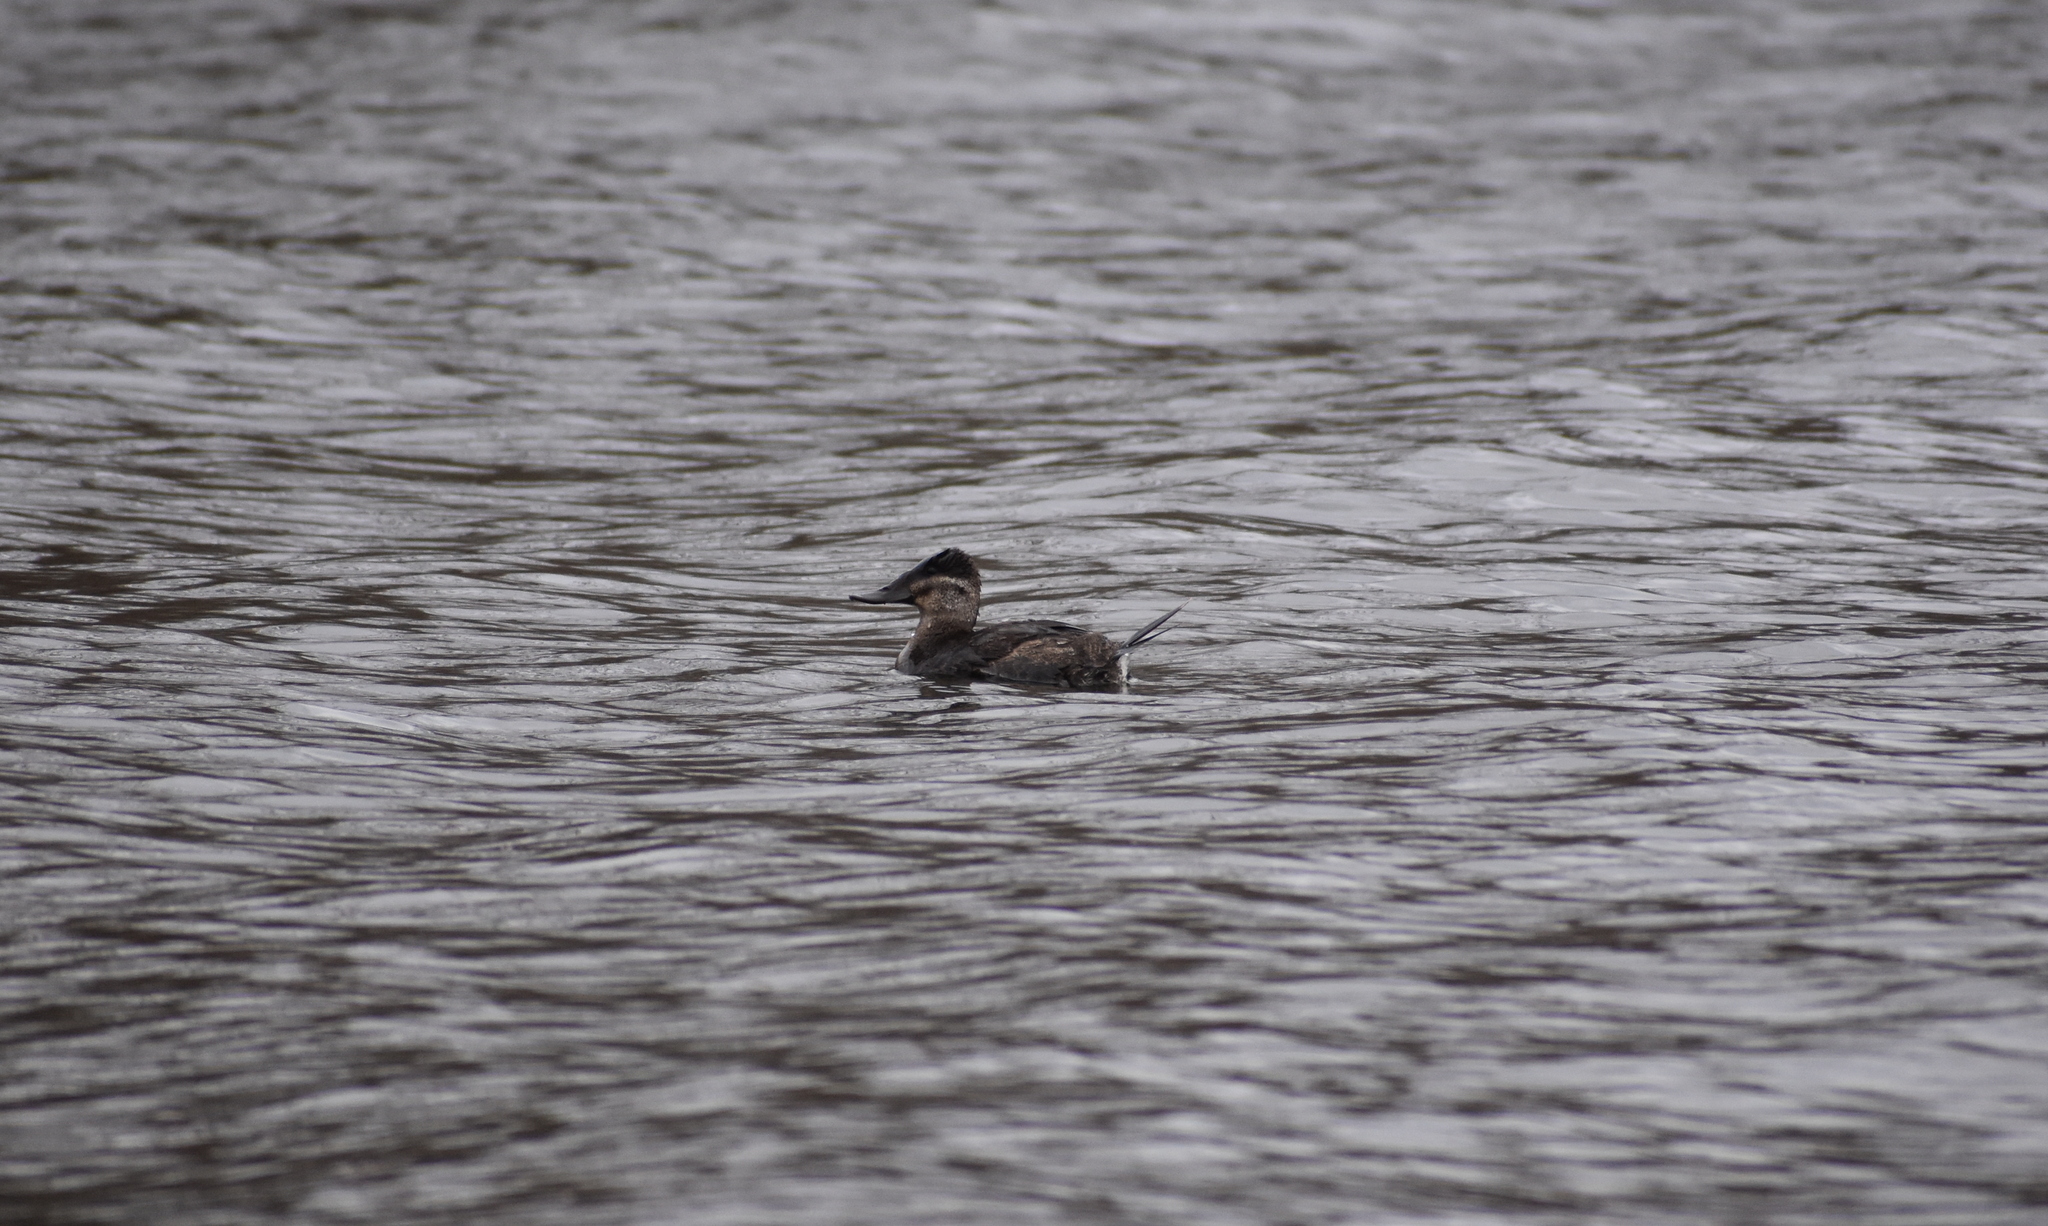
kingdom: Animalia
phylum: Chordata
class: Aves
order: Anseriformes
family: Anatidae
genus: Oxyura
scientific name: Oxyura jamaicensis
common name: Ruddy duck
